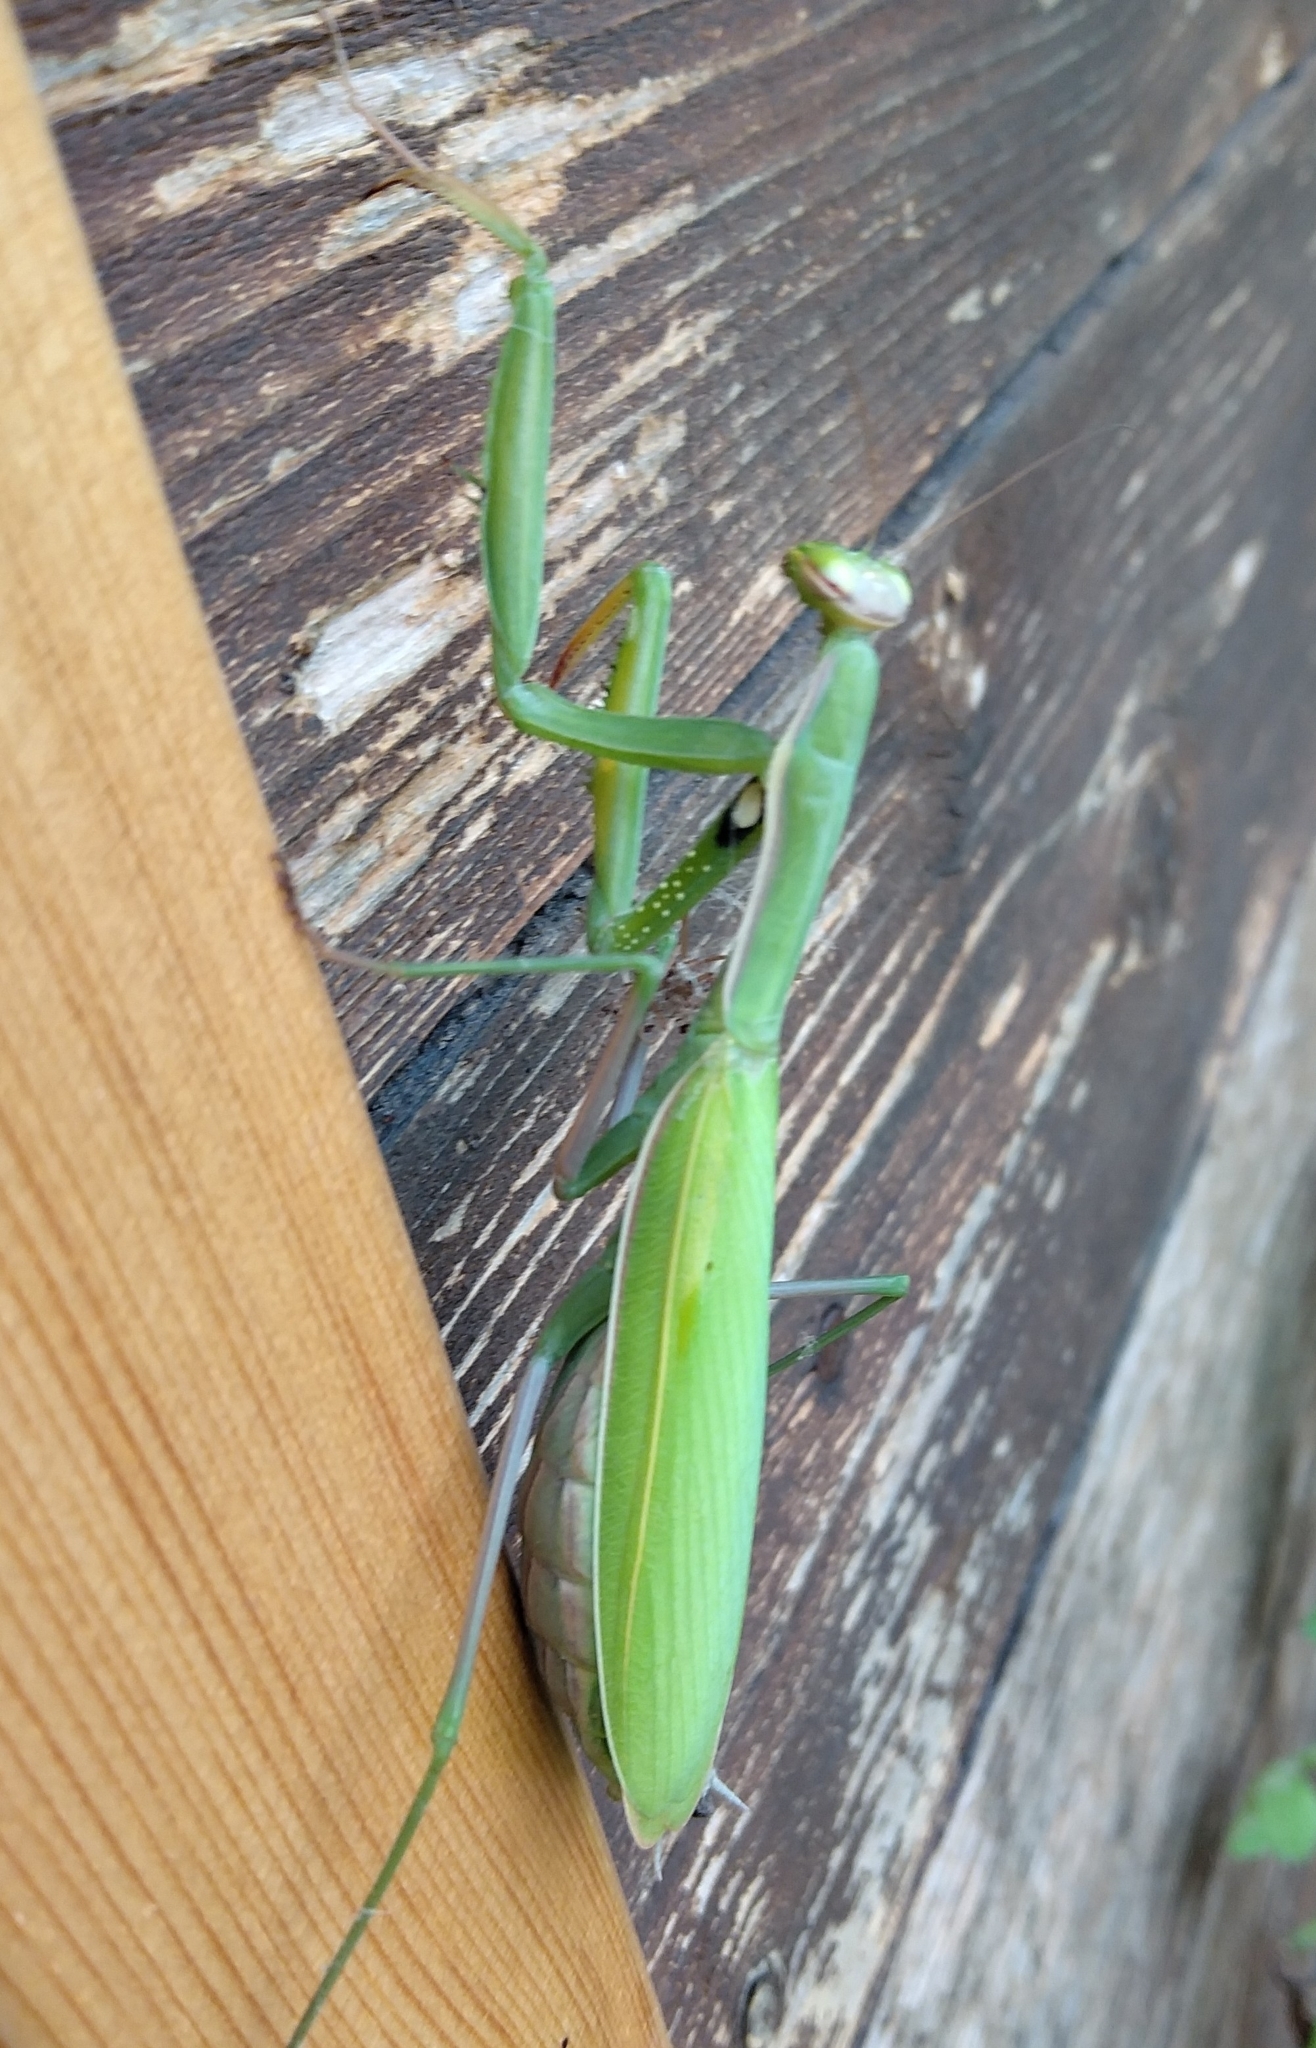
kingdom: Animalia
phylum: Arthropoda
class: Insecta
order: Mantodea
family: Mantidae
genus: Mantis
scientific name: Mantis religiosa
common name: Praying mantis
